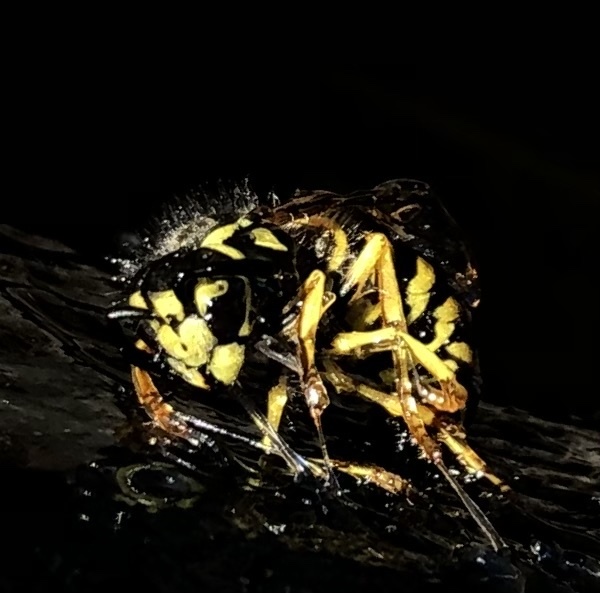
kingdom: Animalia
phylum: Arthropoda
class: Insecta
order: Hymenoptera
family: Vespidae
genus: Vespula
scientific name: Vespula maculifrons
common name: Eastern yellowjacket
